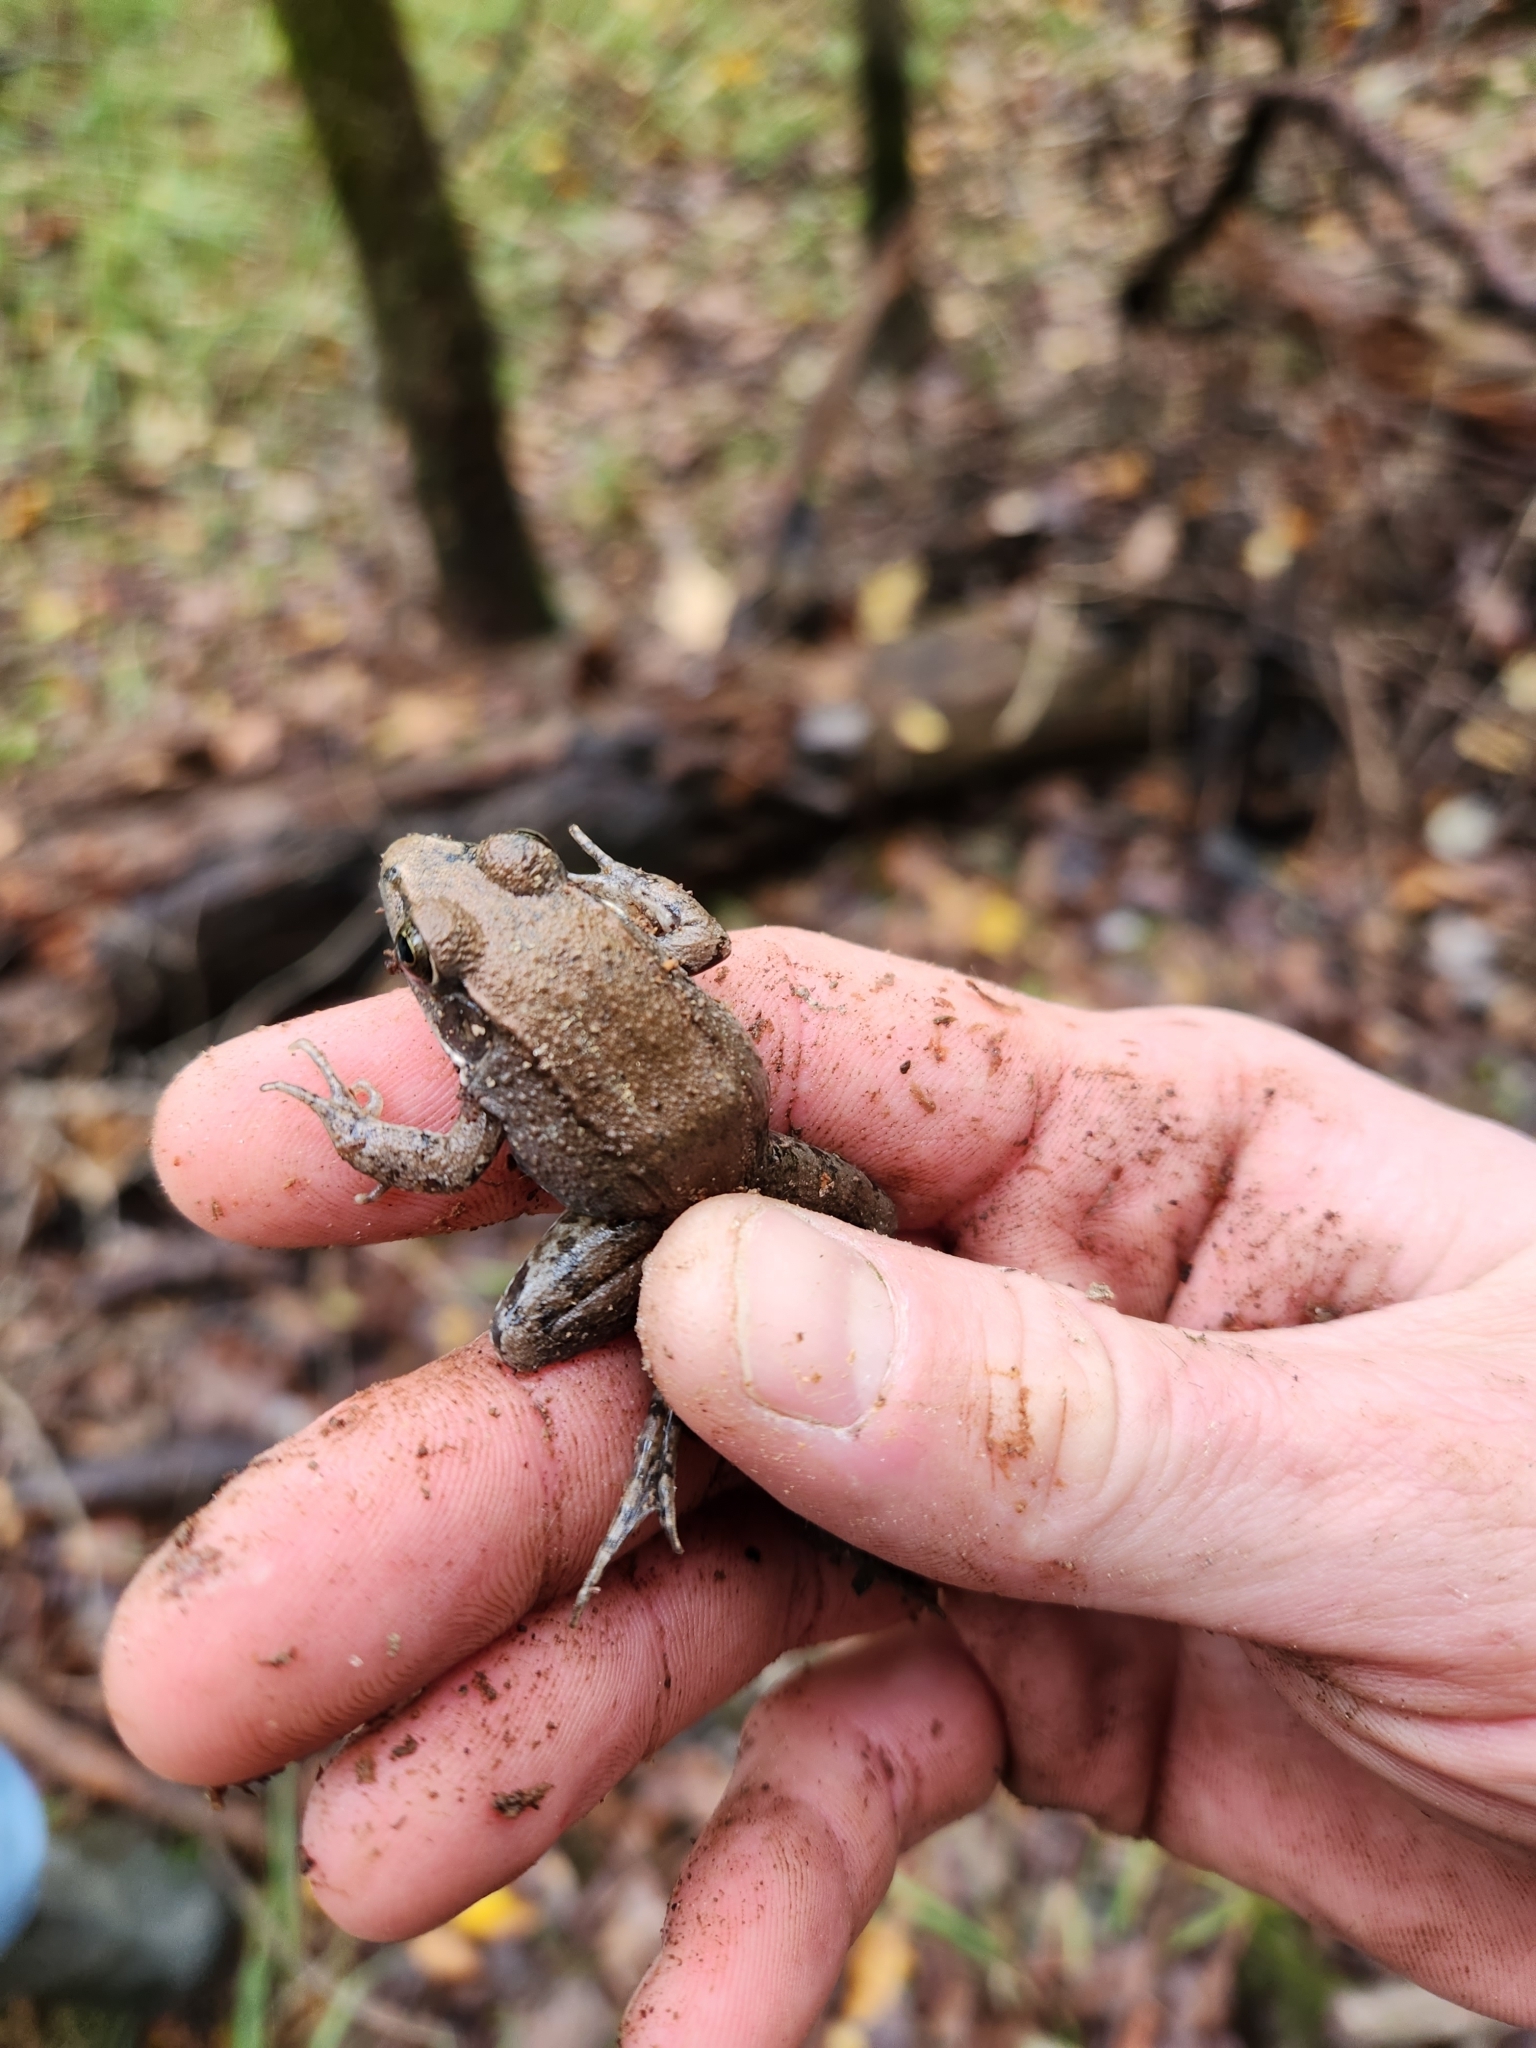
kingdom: Animalia
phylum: Chordata
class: Amphibia
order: Anura
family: Ranidae
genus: Lithobates
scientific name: Lithobates clamitans
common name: Green frog
